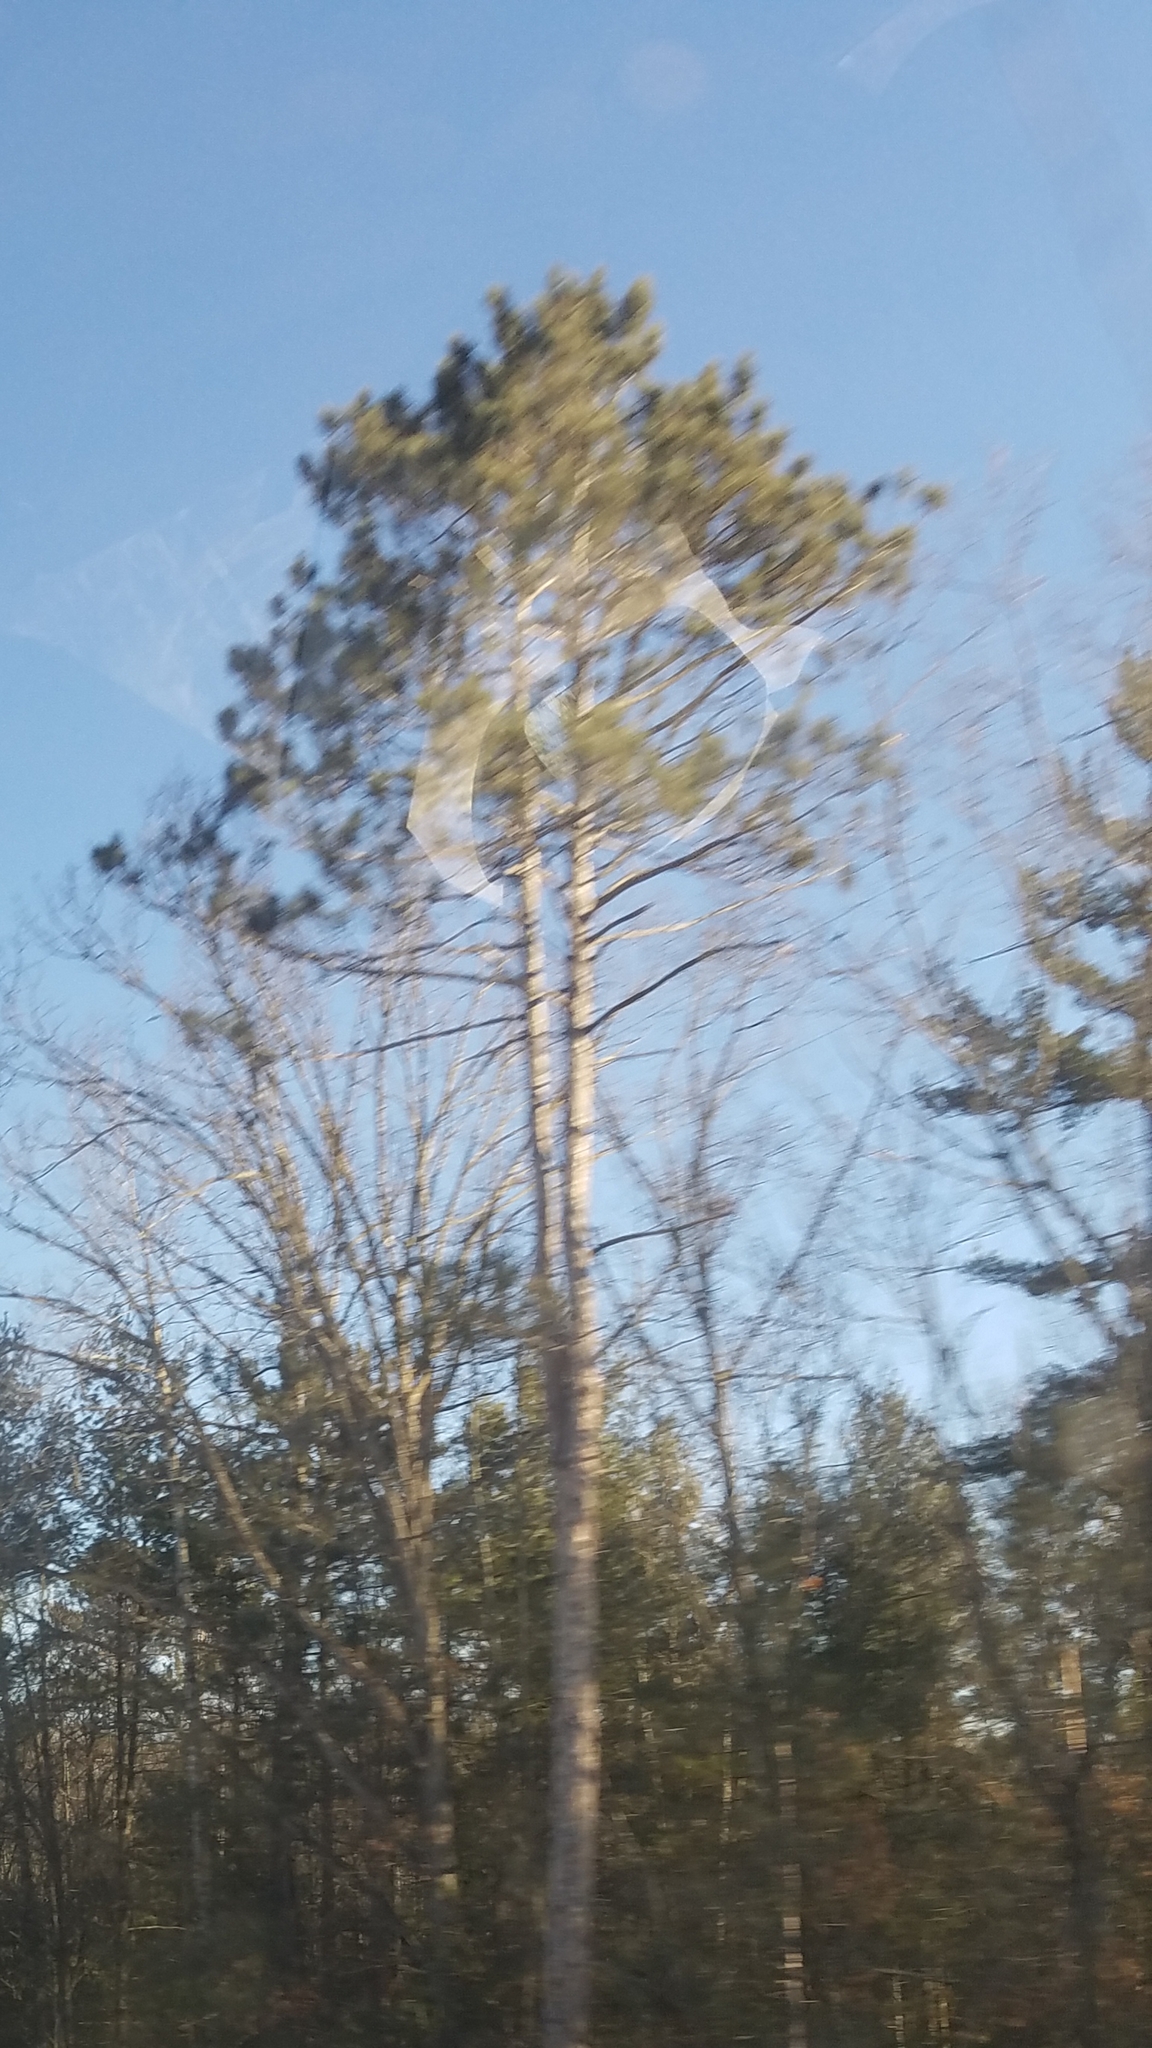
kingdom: Plantae
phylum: Tracheophyta
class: Pinopsida
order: Pinales
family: Pinaceae
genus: Pinus
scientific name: Pinus resinosa
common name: Norway pine
